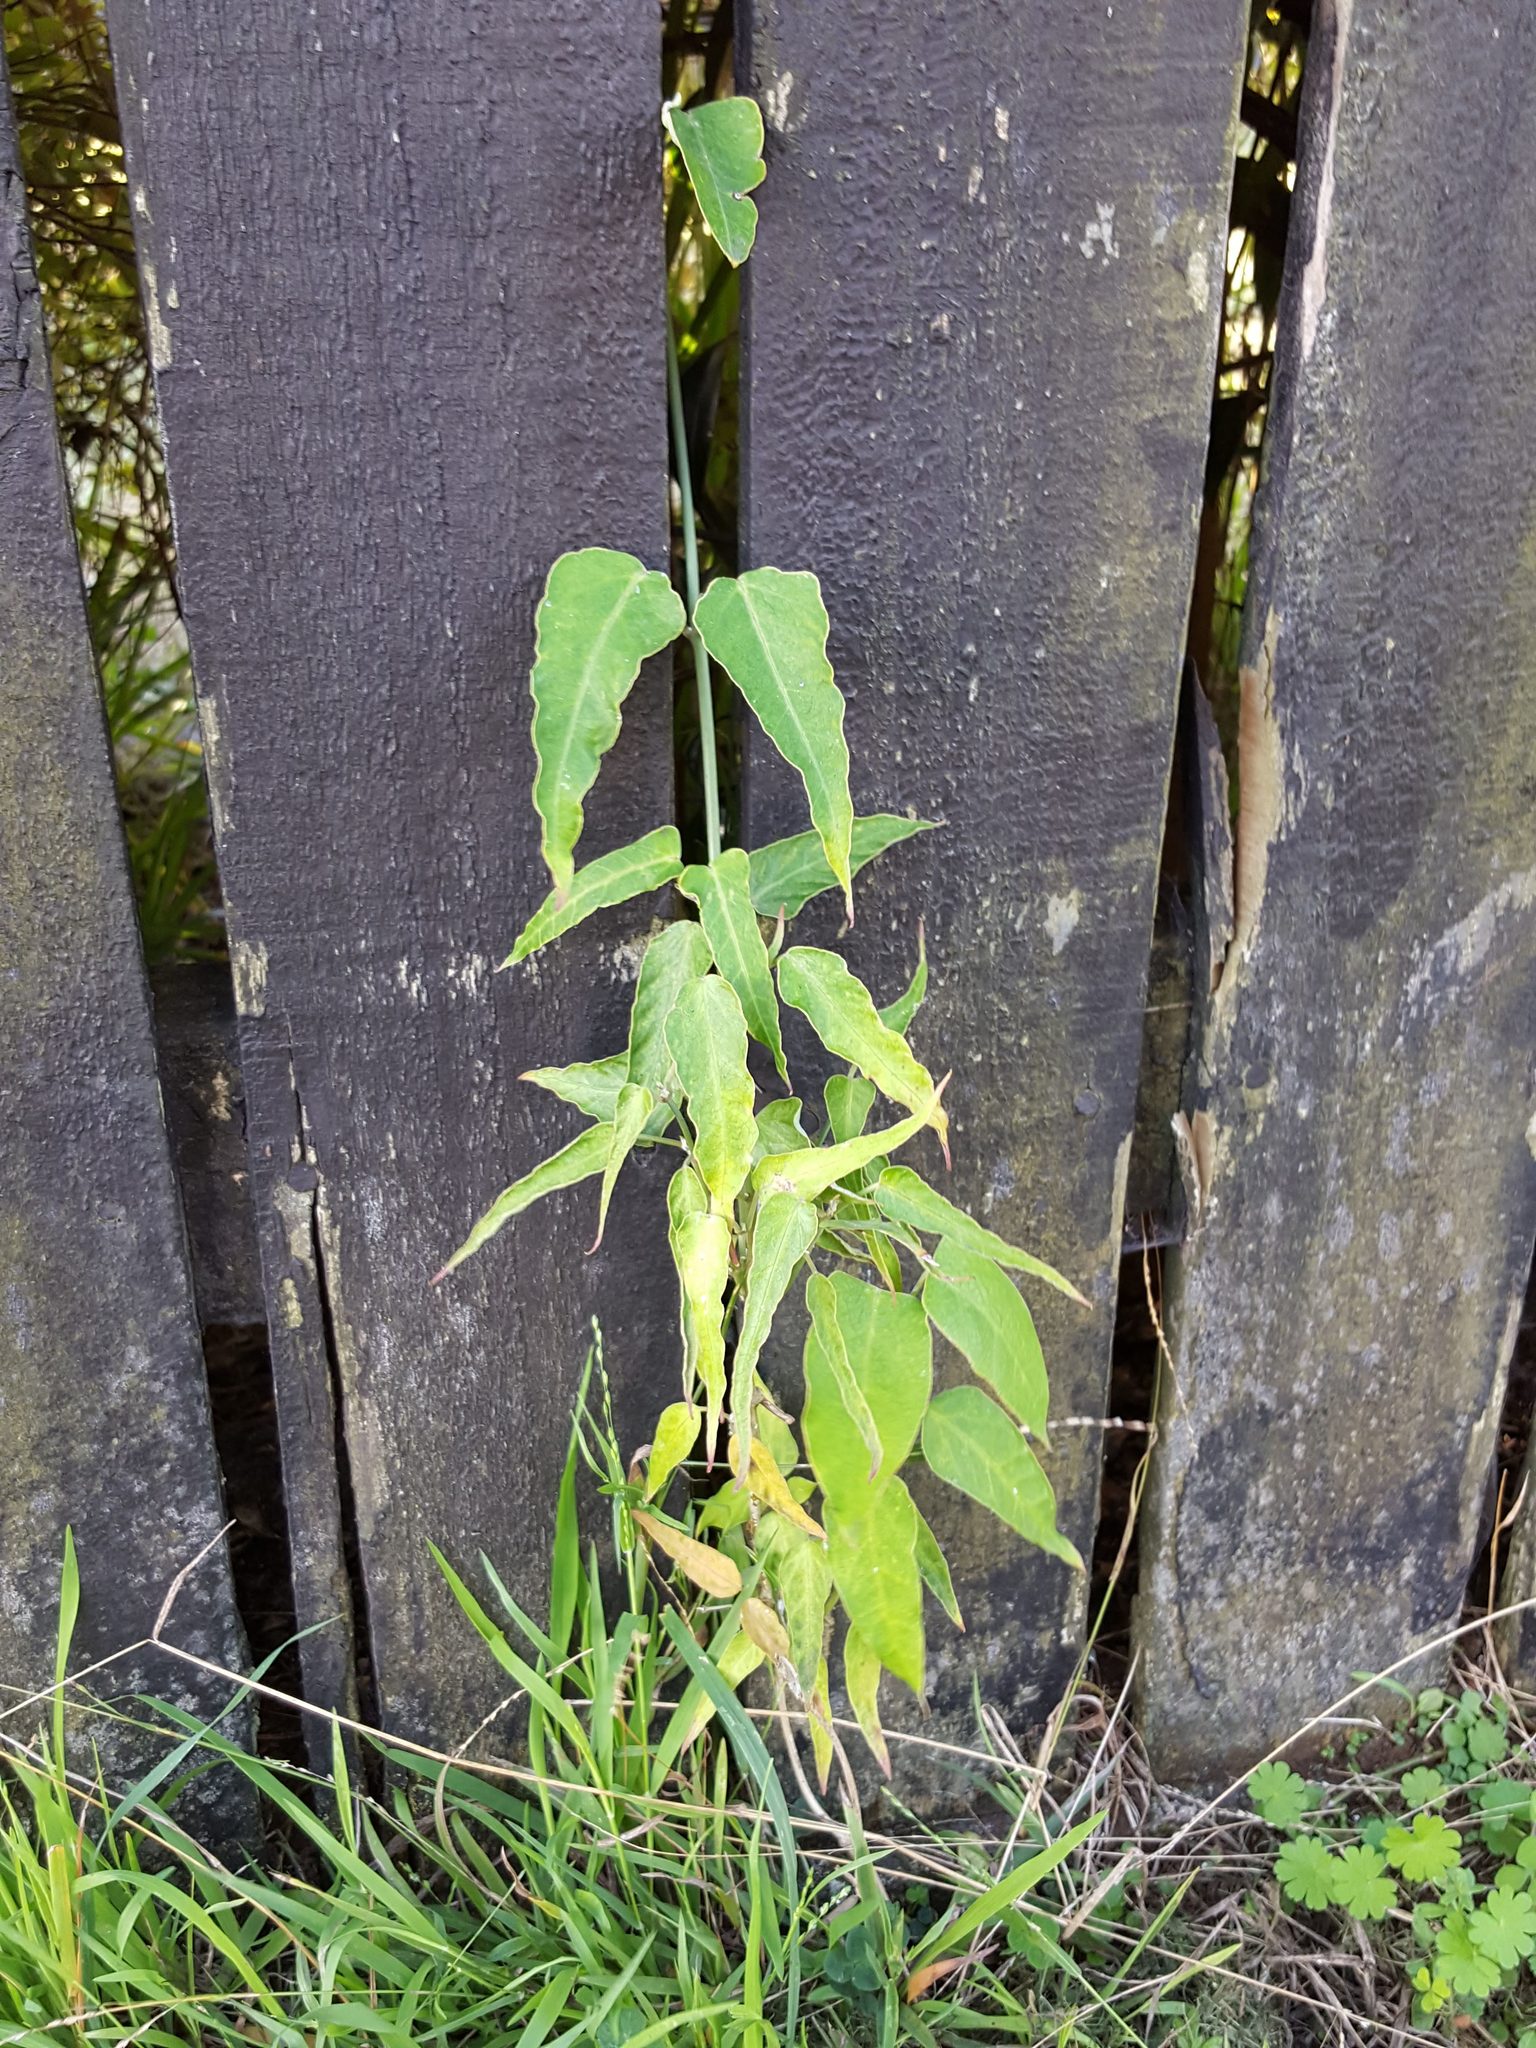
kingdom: Plantae
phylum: Tracheophyta
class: Magnoliopsida
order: Gentianales
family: Apocynaceae
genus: Araujia
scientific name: Araujia sericifera
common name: White bladderflower
